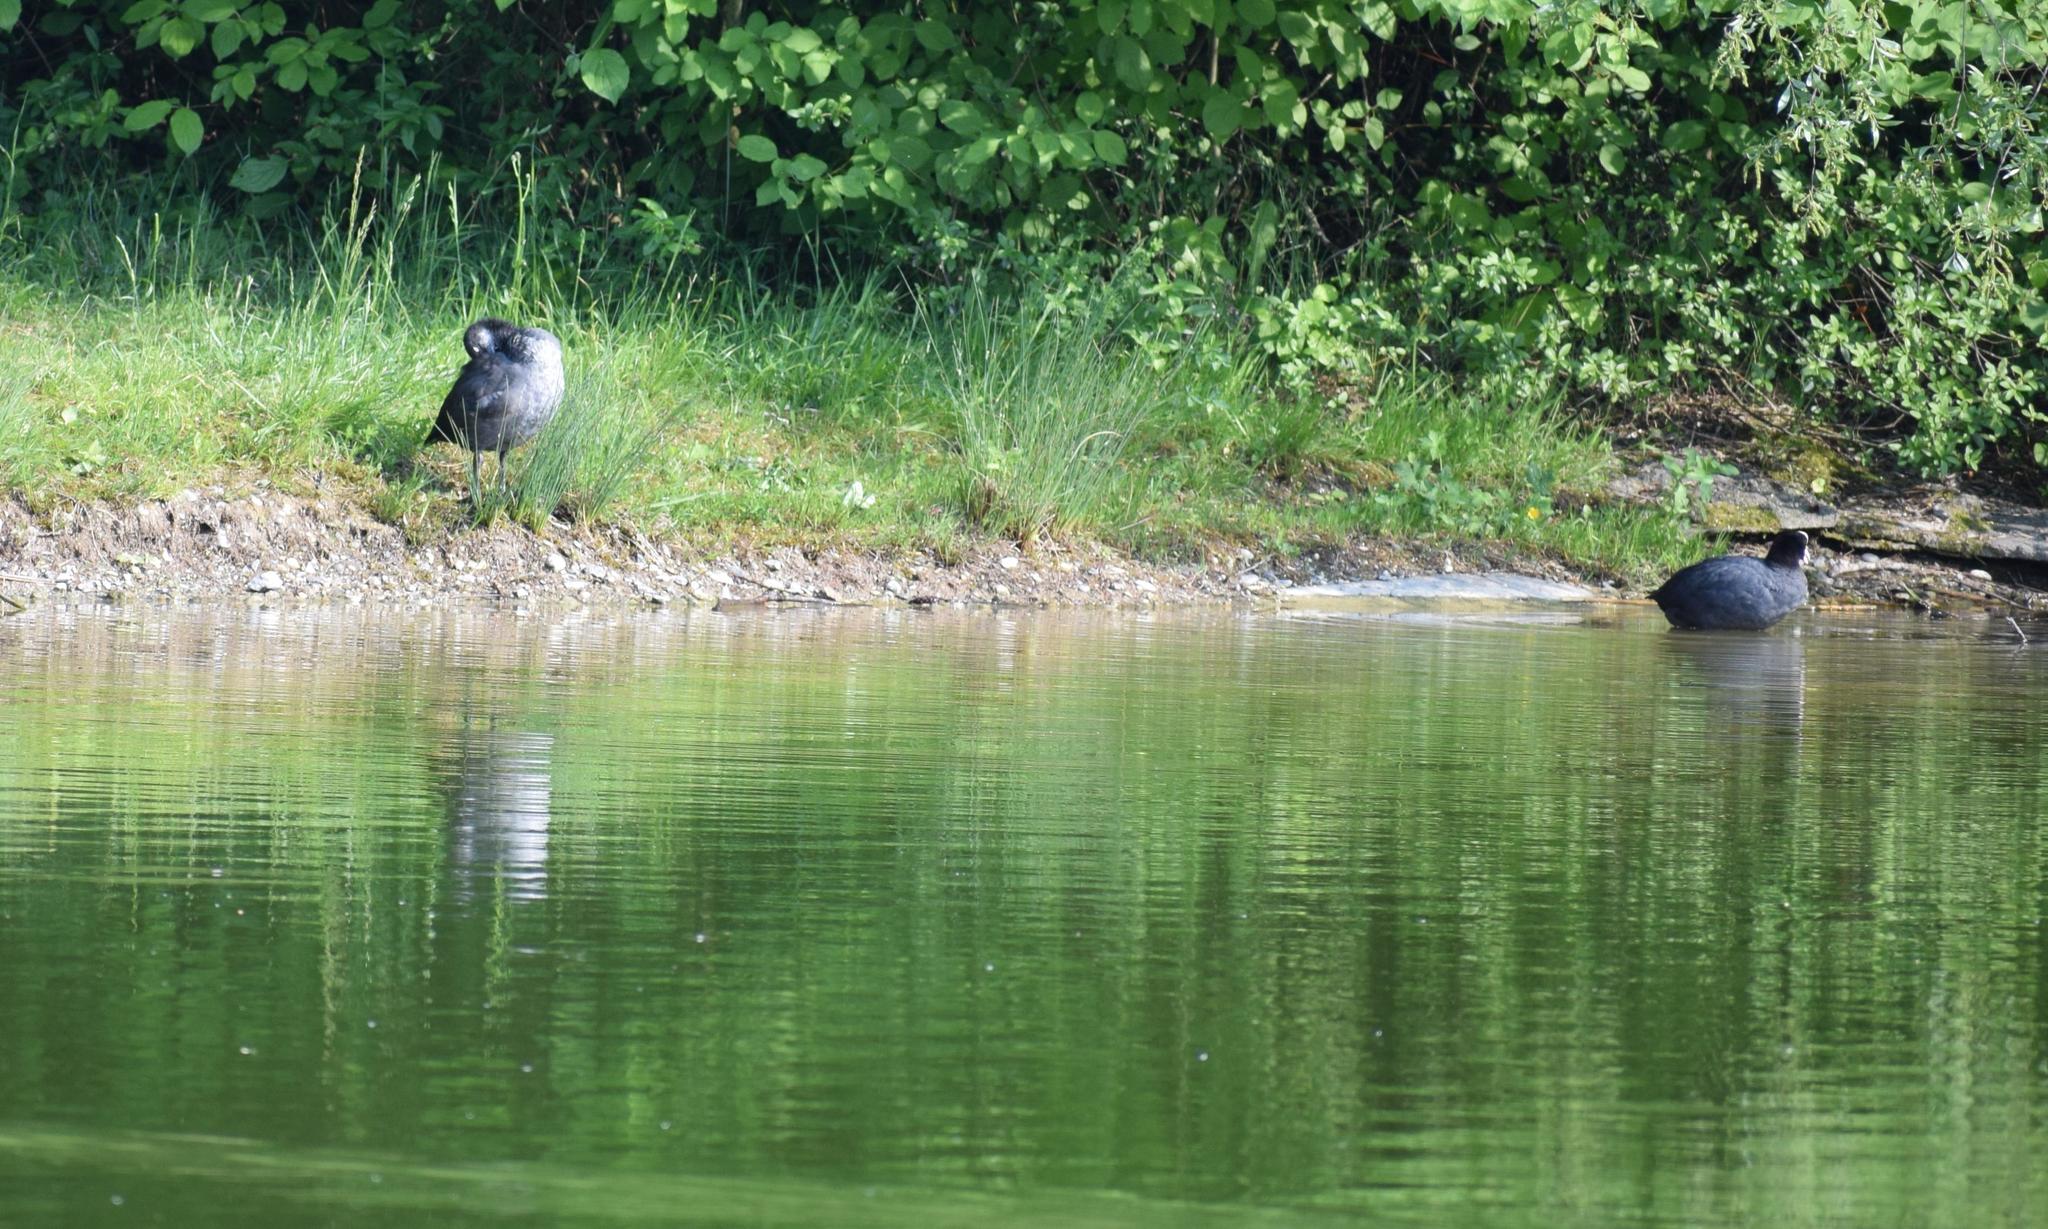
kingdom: Animalia
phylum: Chordata
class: Aves
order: Gruiformes
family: Rallidae
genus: Fulica
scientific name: Fulica atra
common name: Eurasian coot
